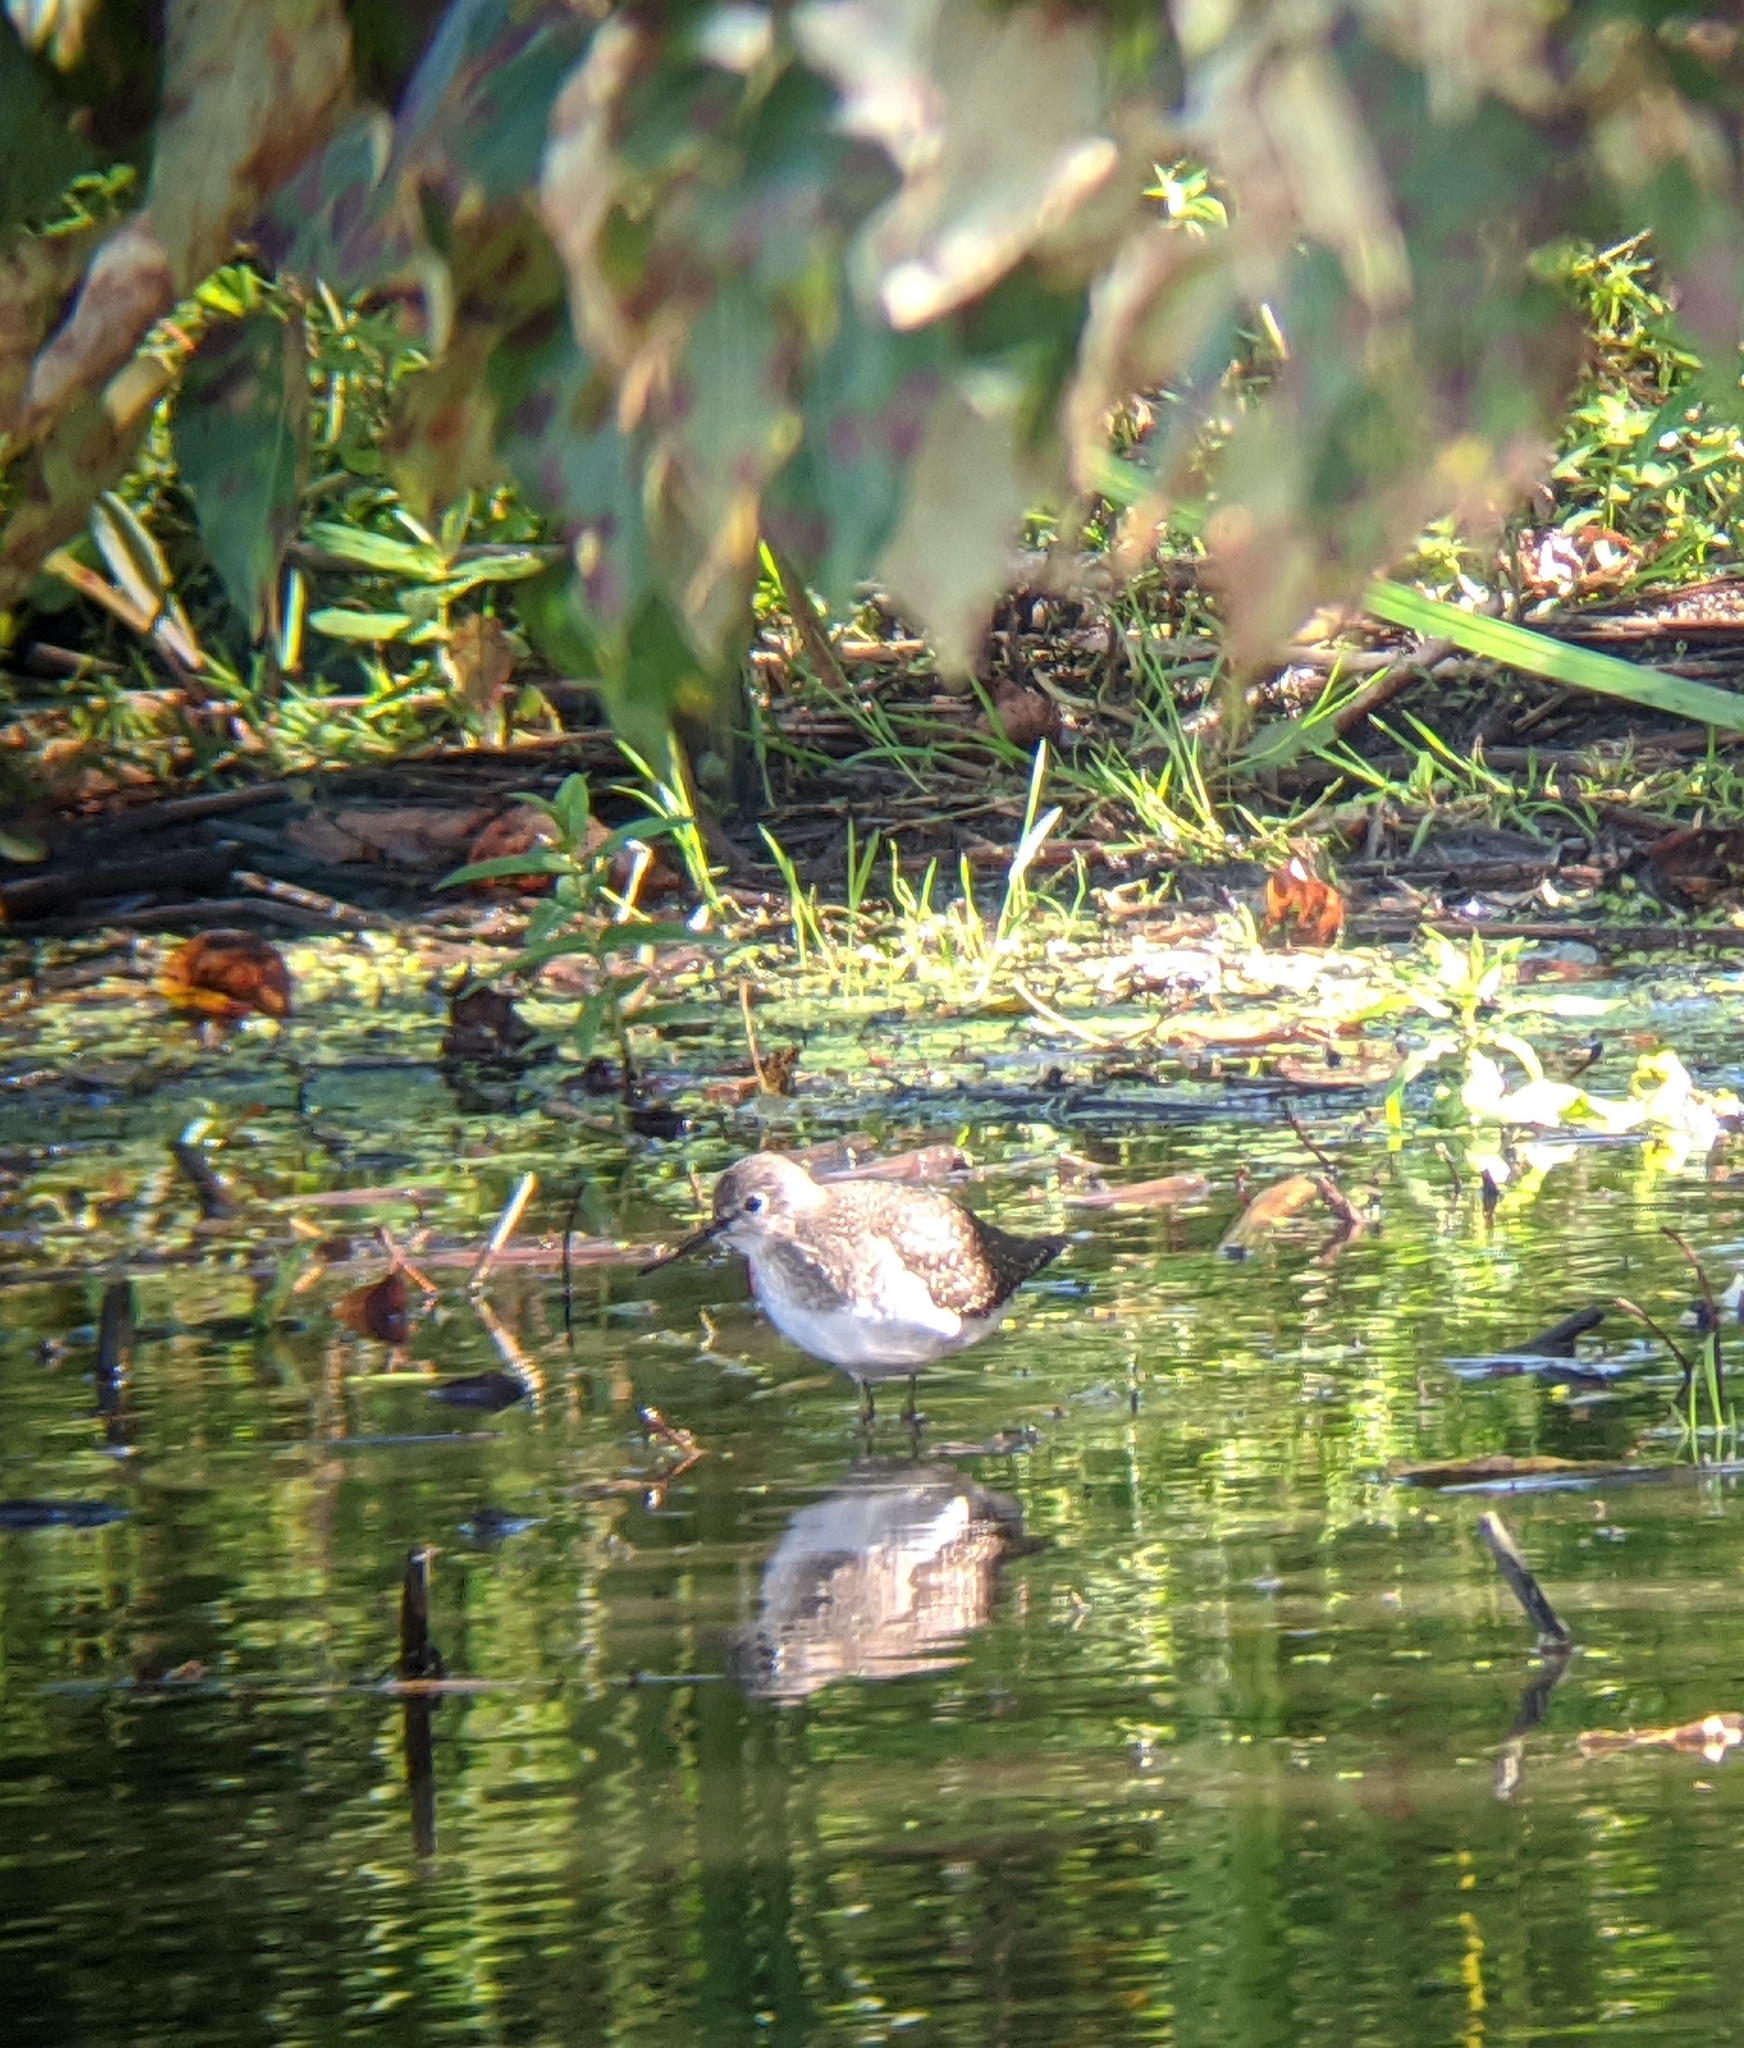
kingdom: Animalia
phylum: Chordata
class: Aves
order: Charadriiformes
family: Scolopacidae
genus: Tringa
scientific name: Tringa solitaria
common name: Solitary sandpiper
